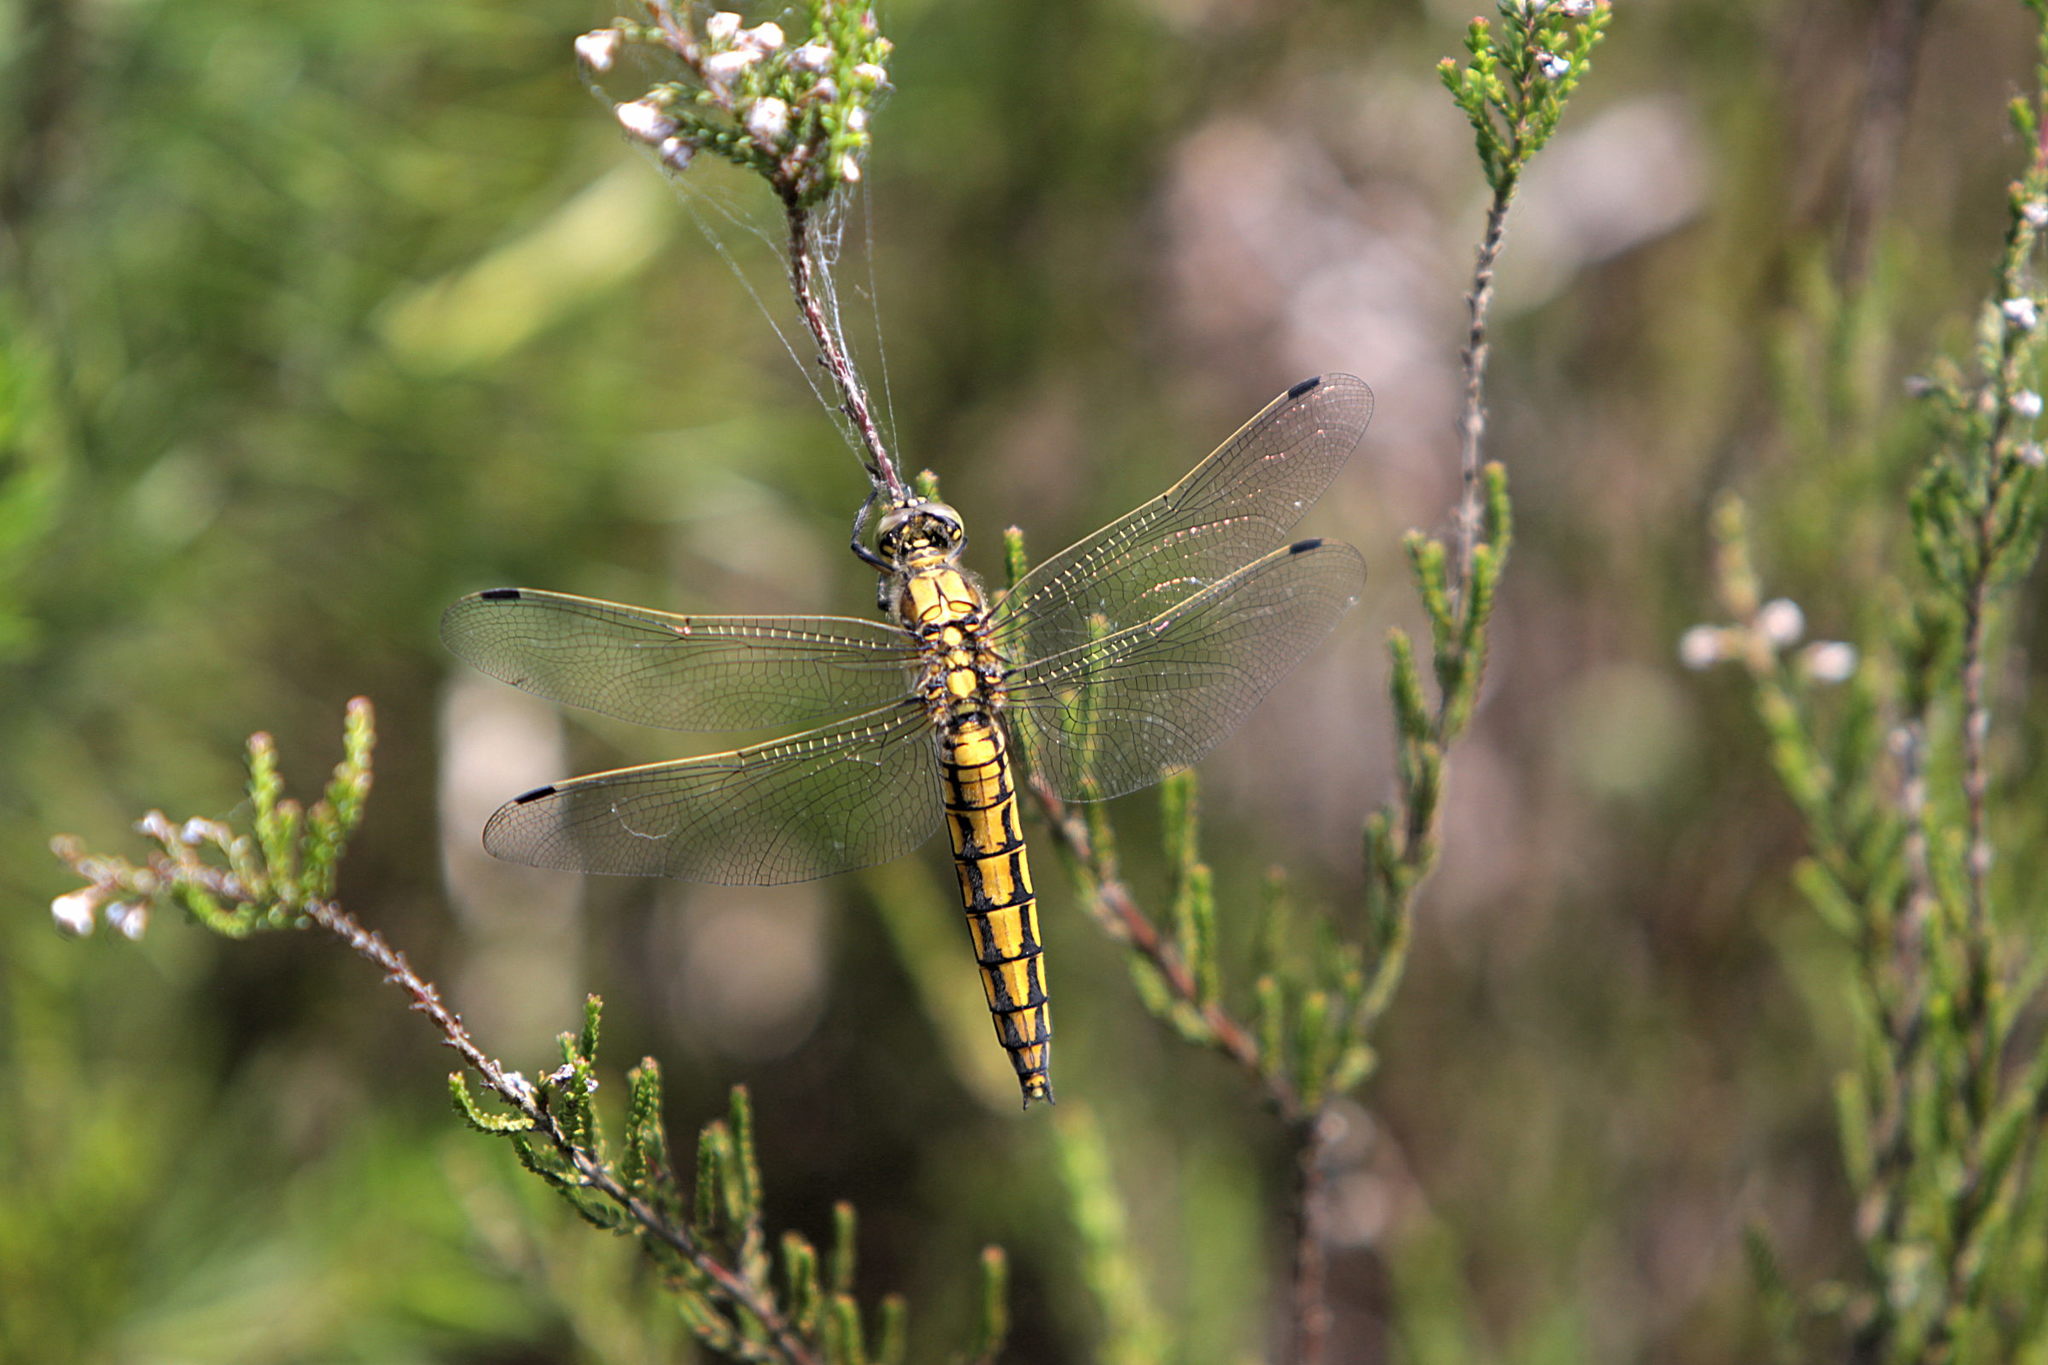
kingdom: Animalia
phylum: Arthropoda
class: Insecta
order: Odonata
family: Libellulidae
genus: Orthetrum
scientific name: Orthetrum cancellatum
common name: Black-tailed skimmer
